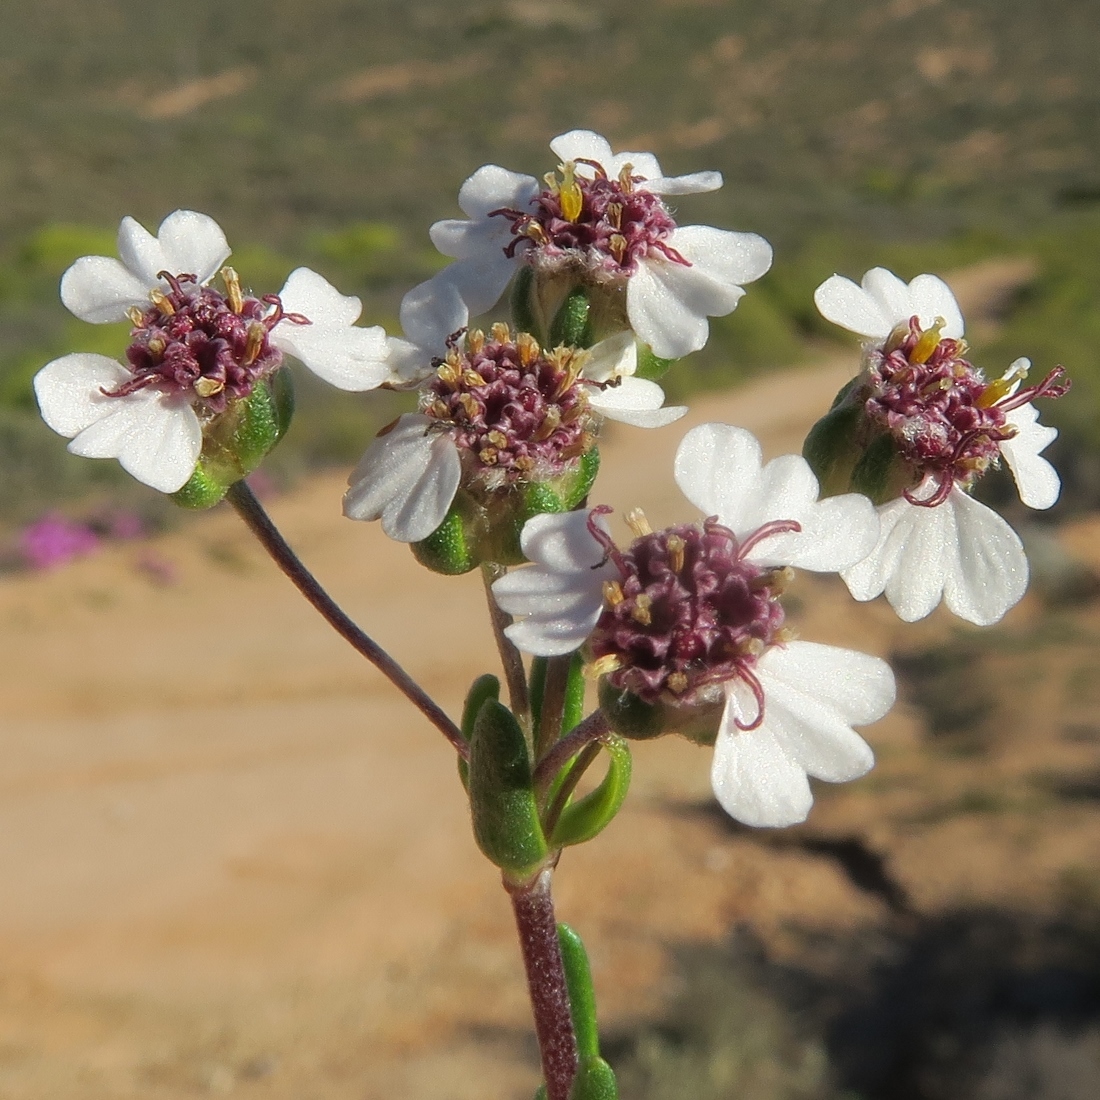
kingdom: Plantae
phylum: Tracheophyta
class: Magnoliopsida
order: Asterales
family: Asteraceae
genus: Eriocephalus
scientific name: Eriocephalus punctulatus
